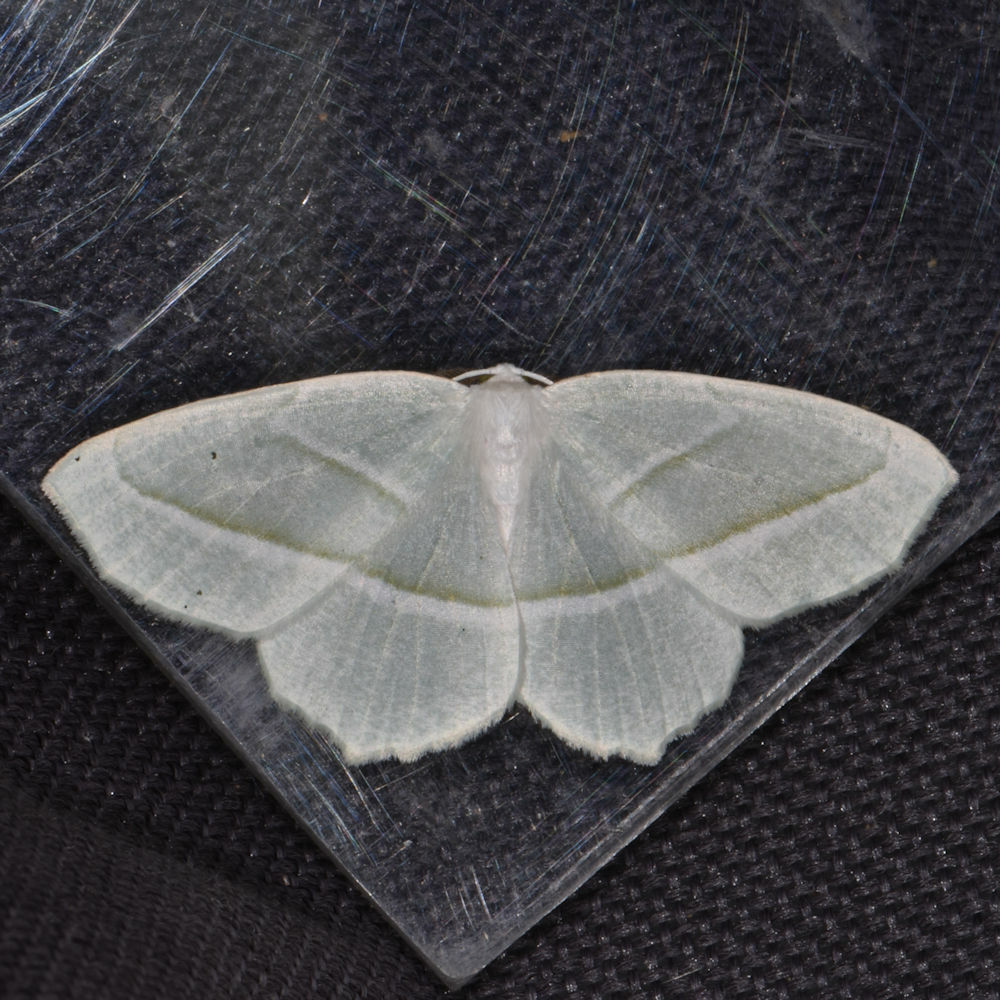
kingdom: Animalia
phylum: Arthropoda
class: Insecta
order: Lepidoptera
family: Geometridae
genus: Campaea
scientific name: Campaea perlata
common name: Fringed looper
